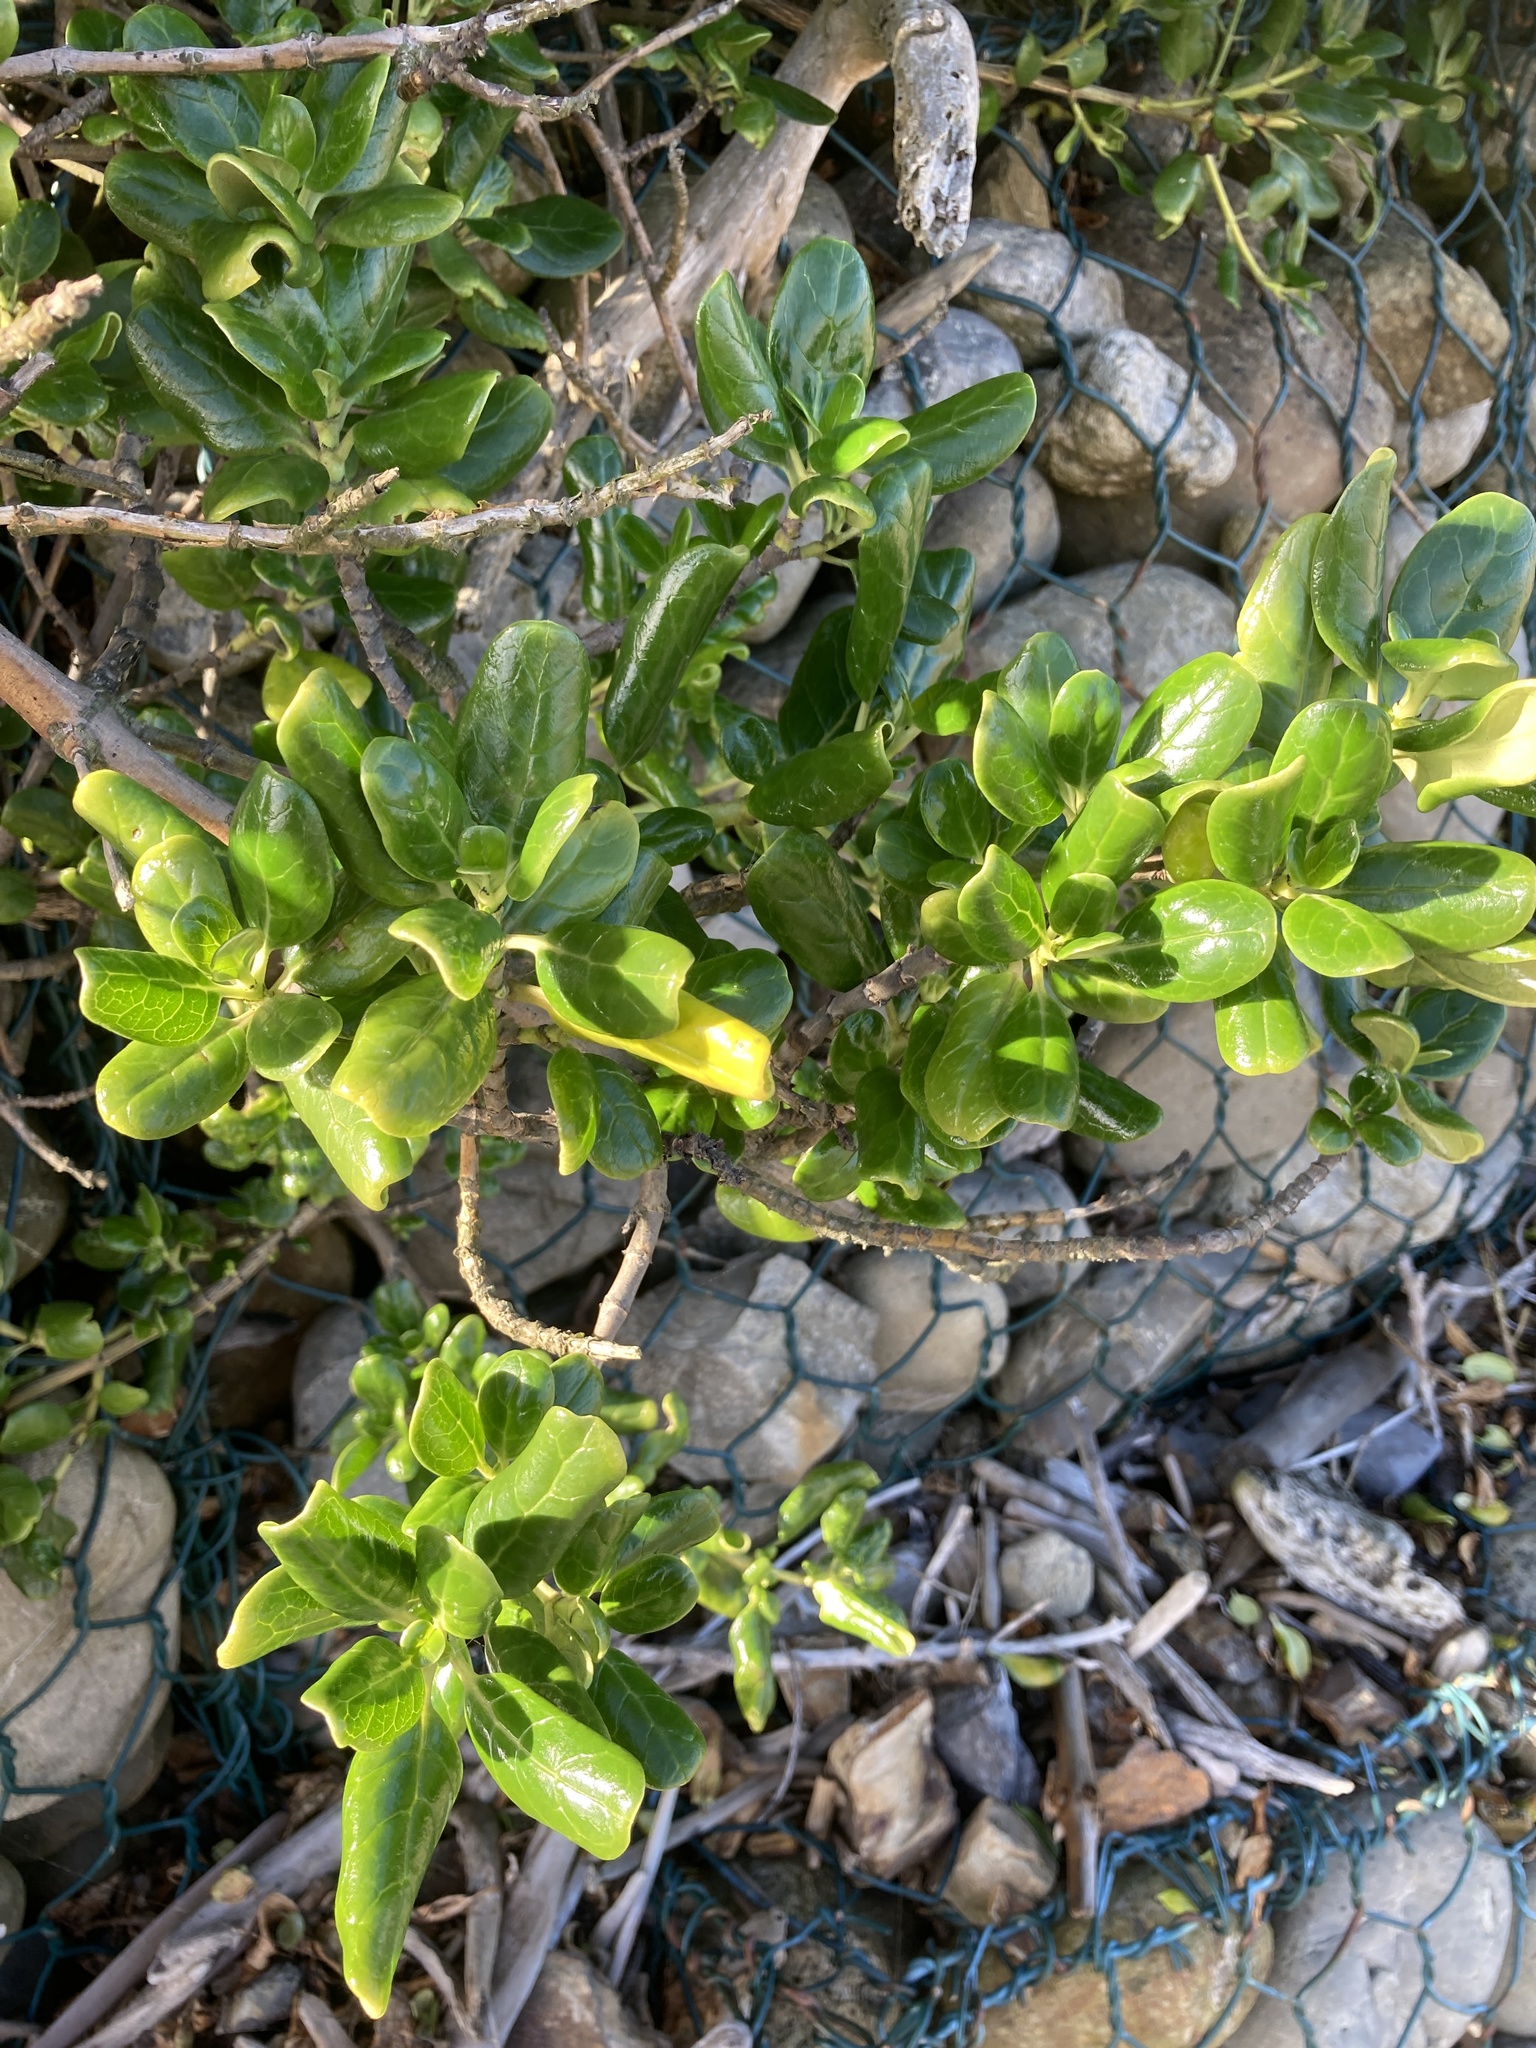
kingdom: Plantae
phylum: Tracheophyta
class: Magnoliopsida
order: Gentianales
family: Rubiaceae
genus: Coprosma
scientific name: Coprosma repens
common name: Tree bedstraw
